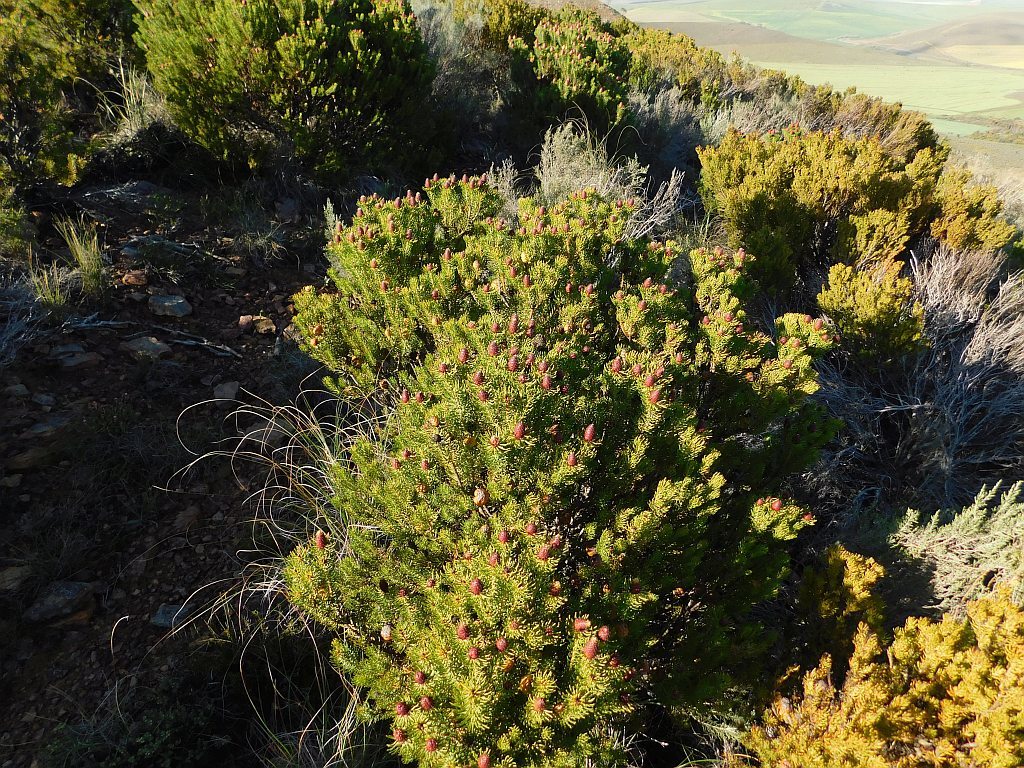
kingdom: Plantae
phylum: Tracheophyta
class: Magnoliopsida
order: Proteales
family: Proteaceae
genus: Leucadendron
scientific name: Leucadendron teretifolium
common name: Needle-leaf conebush
